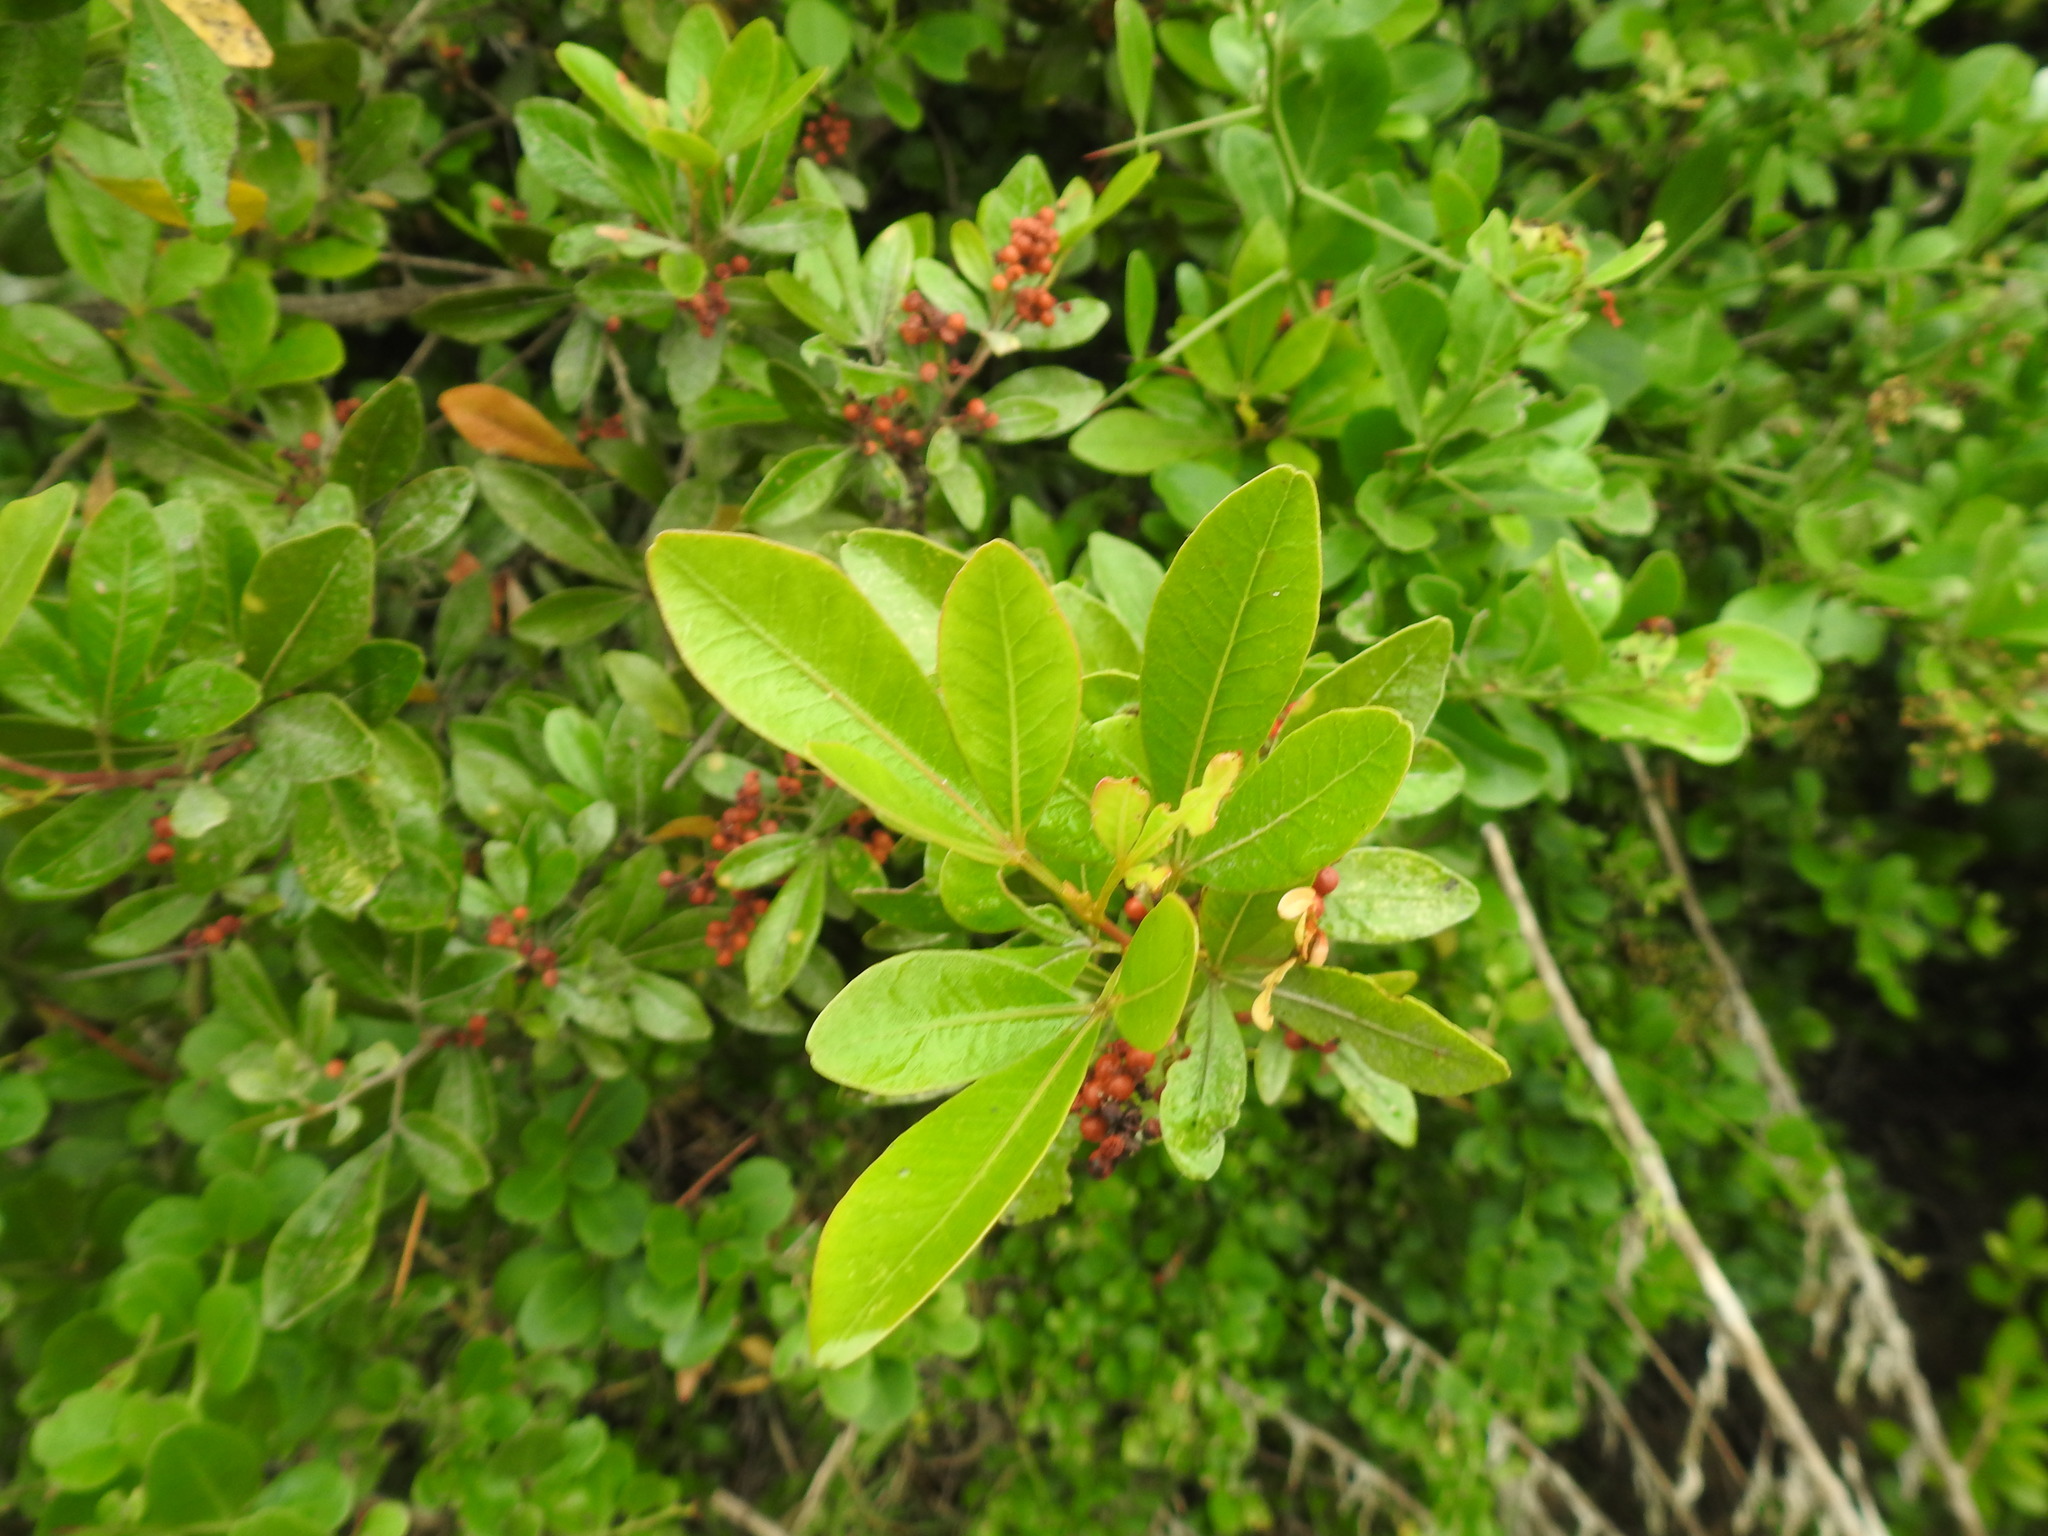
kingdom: Plantae
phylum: Tracheophyta
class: Magnoliopsida
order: Sapindales
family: Anacardiaceae
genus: Searsia
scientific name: Searsia lucida
